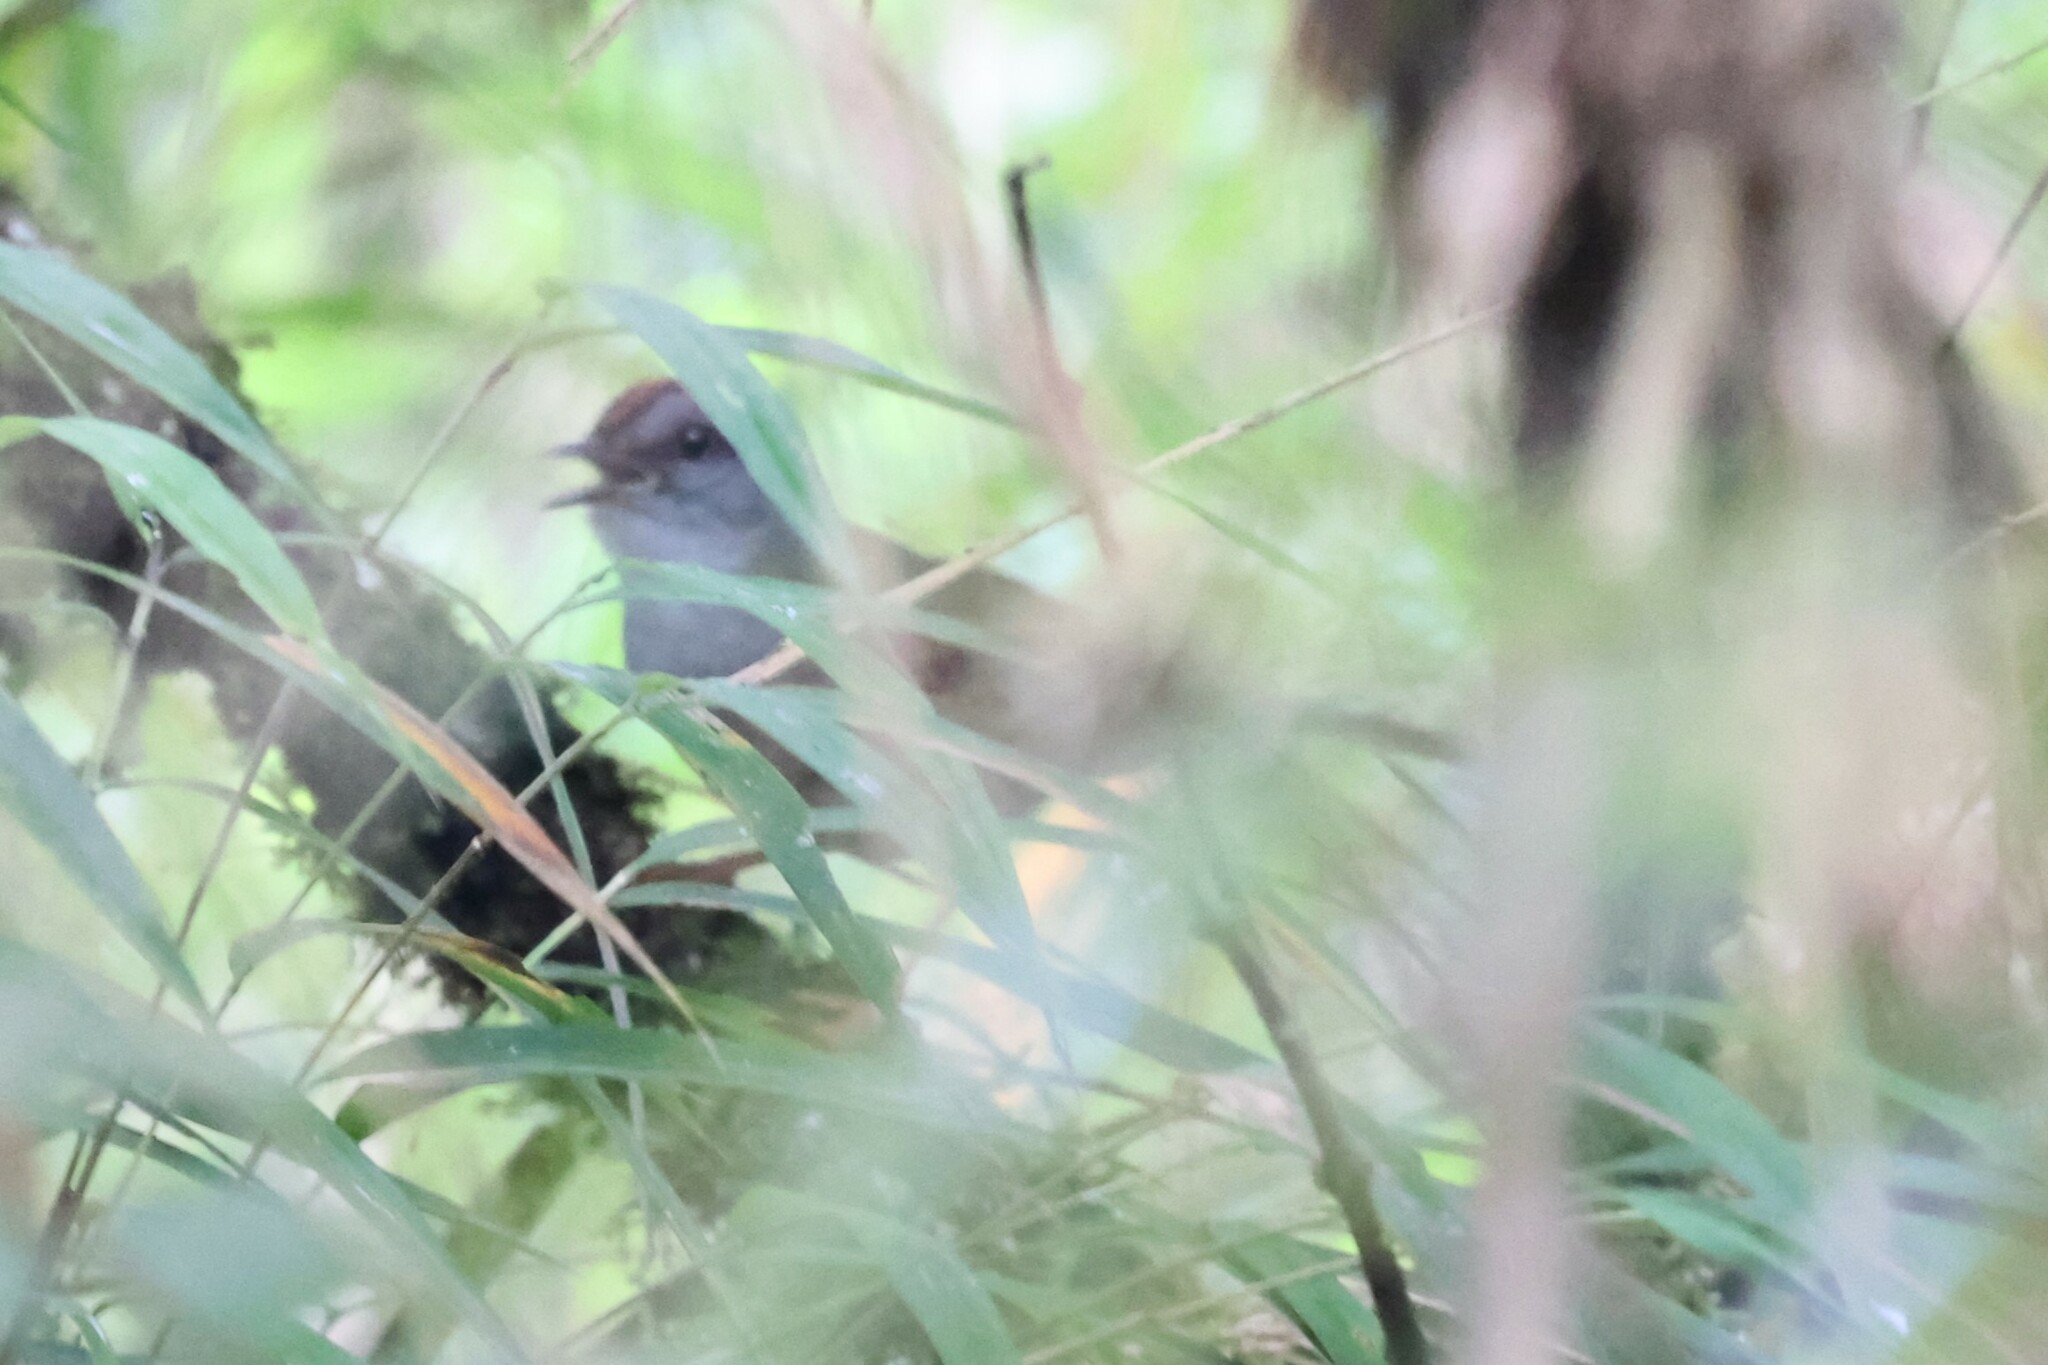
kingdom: Animalia
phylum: Chordata
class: Aves
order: Passeriformes
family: Parulidae
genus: Myiothlypis
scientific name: Myiothlypis coronata
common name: Russet-crowned warbler
